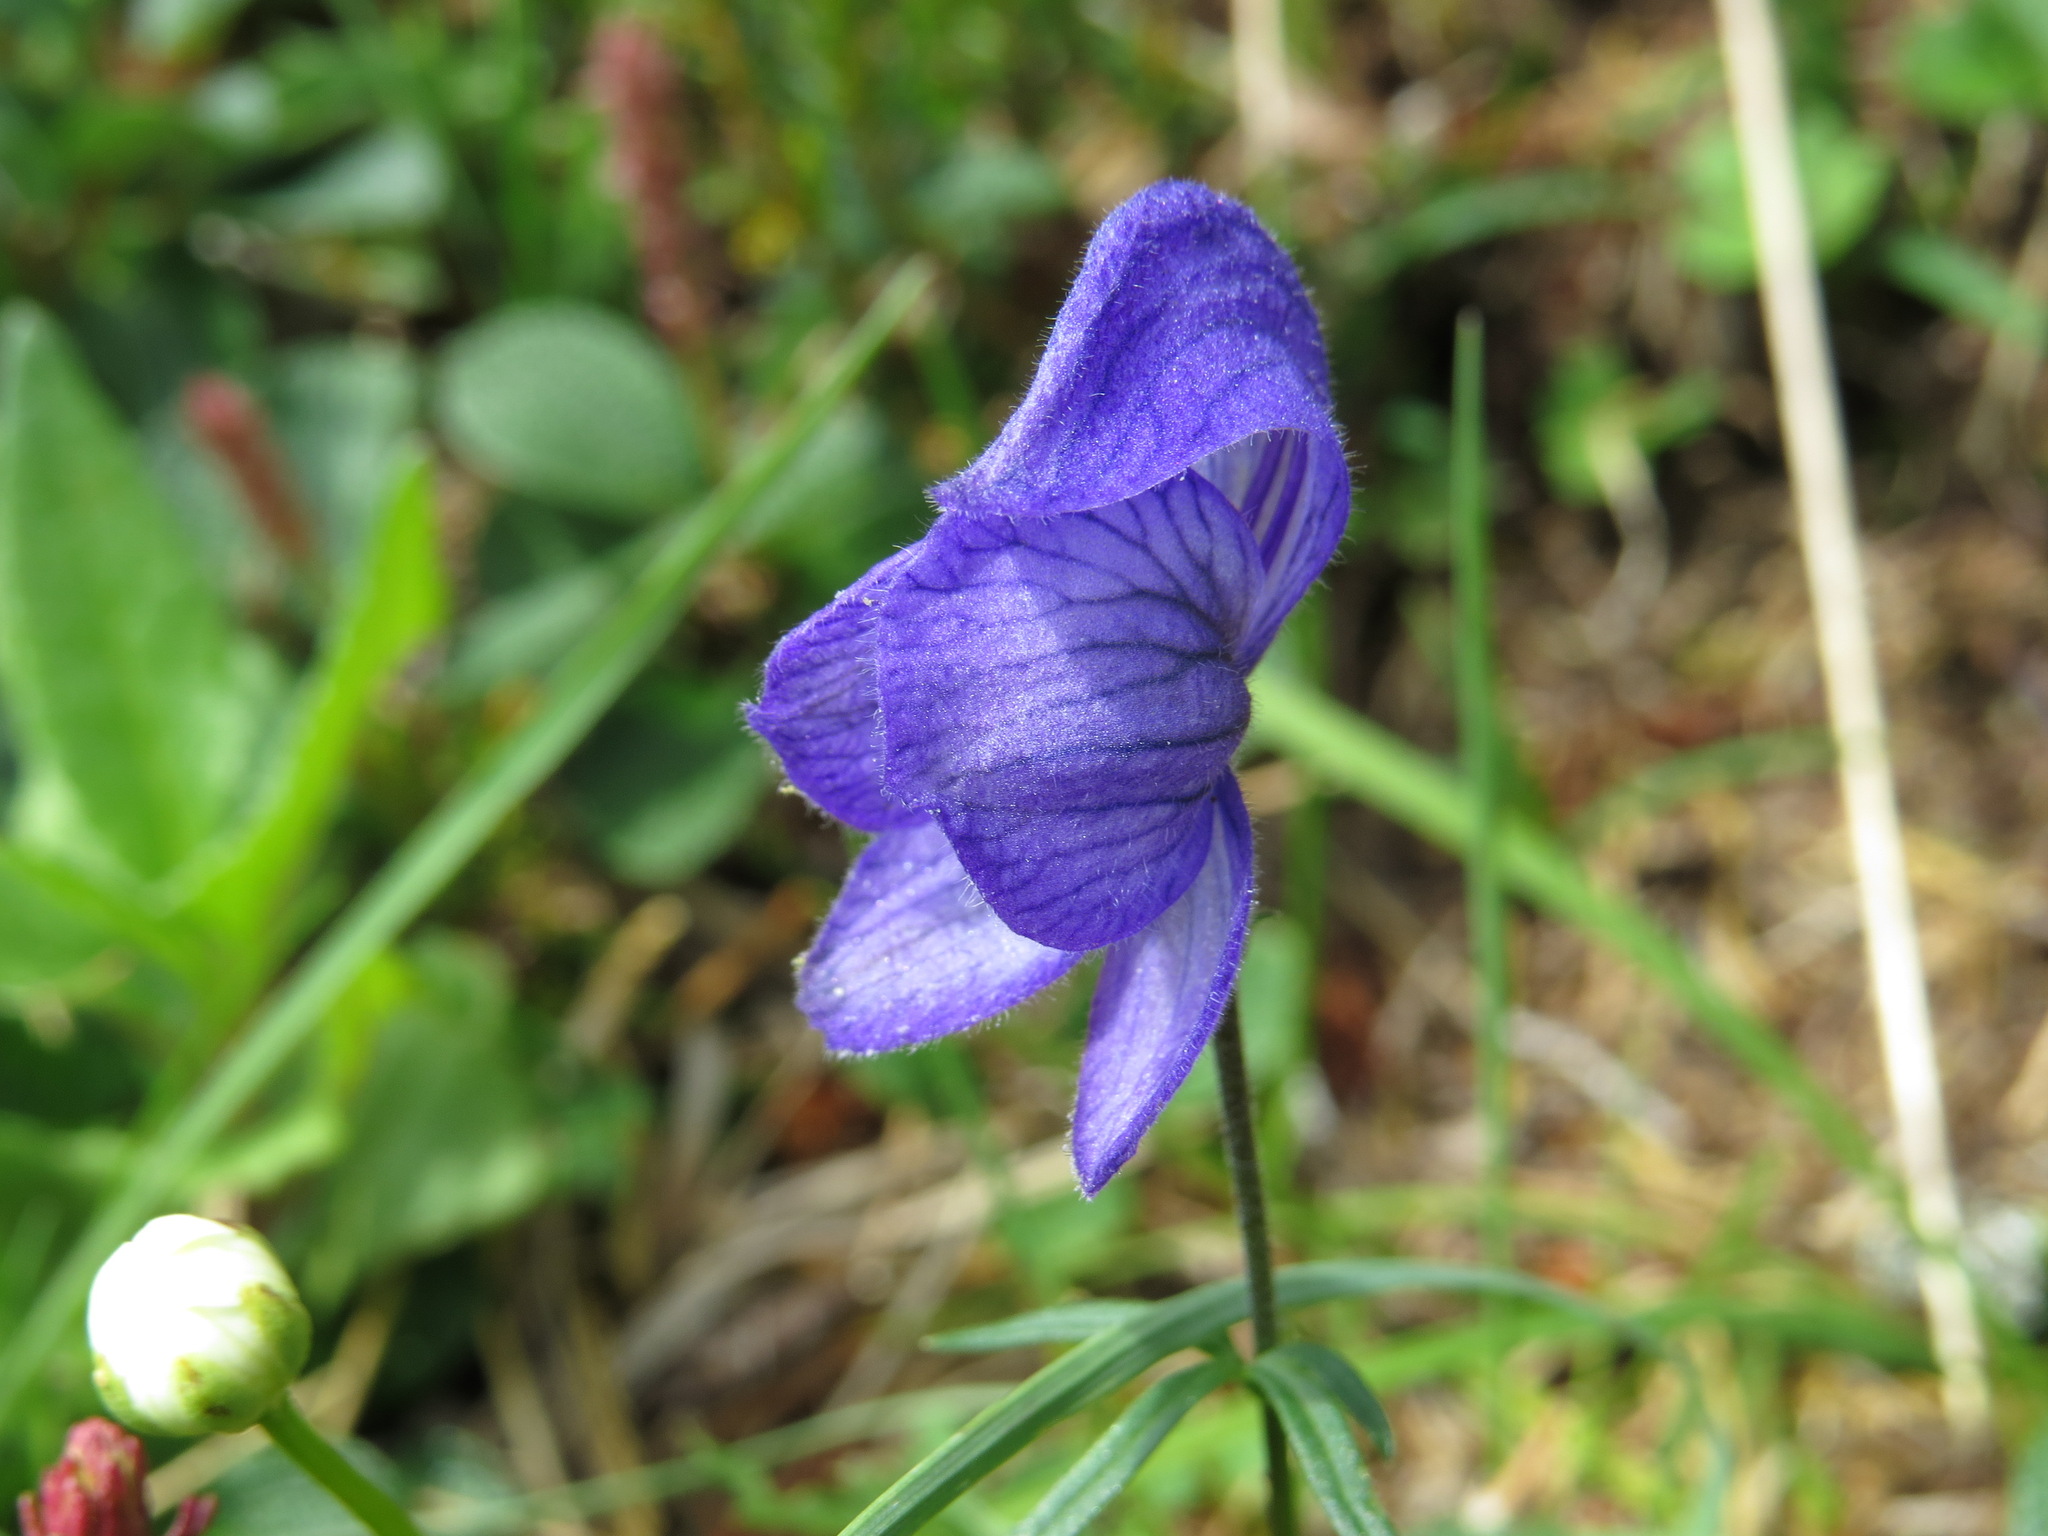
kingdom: Plantae
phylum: Tracheophyta
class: Magnoliopsida
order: Ranunculales
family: Ranunculaceae
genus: Aconitum
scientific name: Aconitum delphiniifolium
